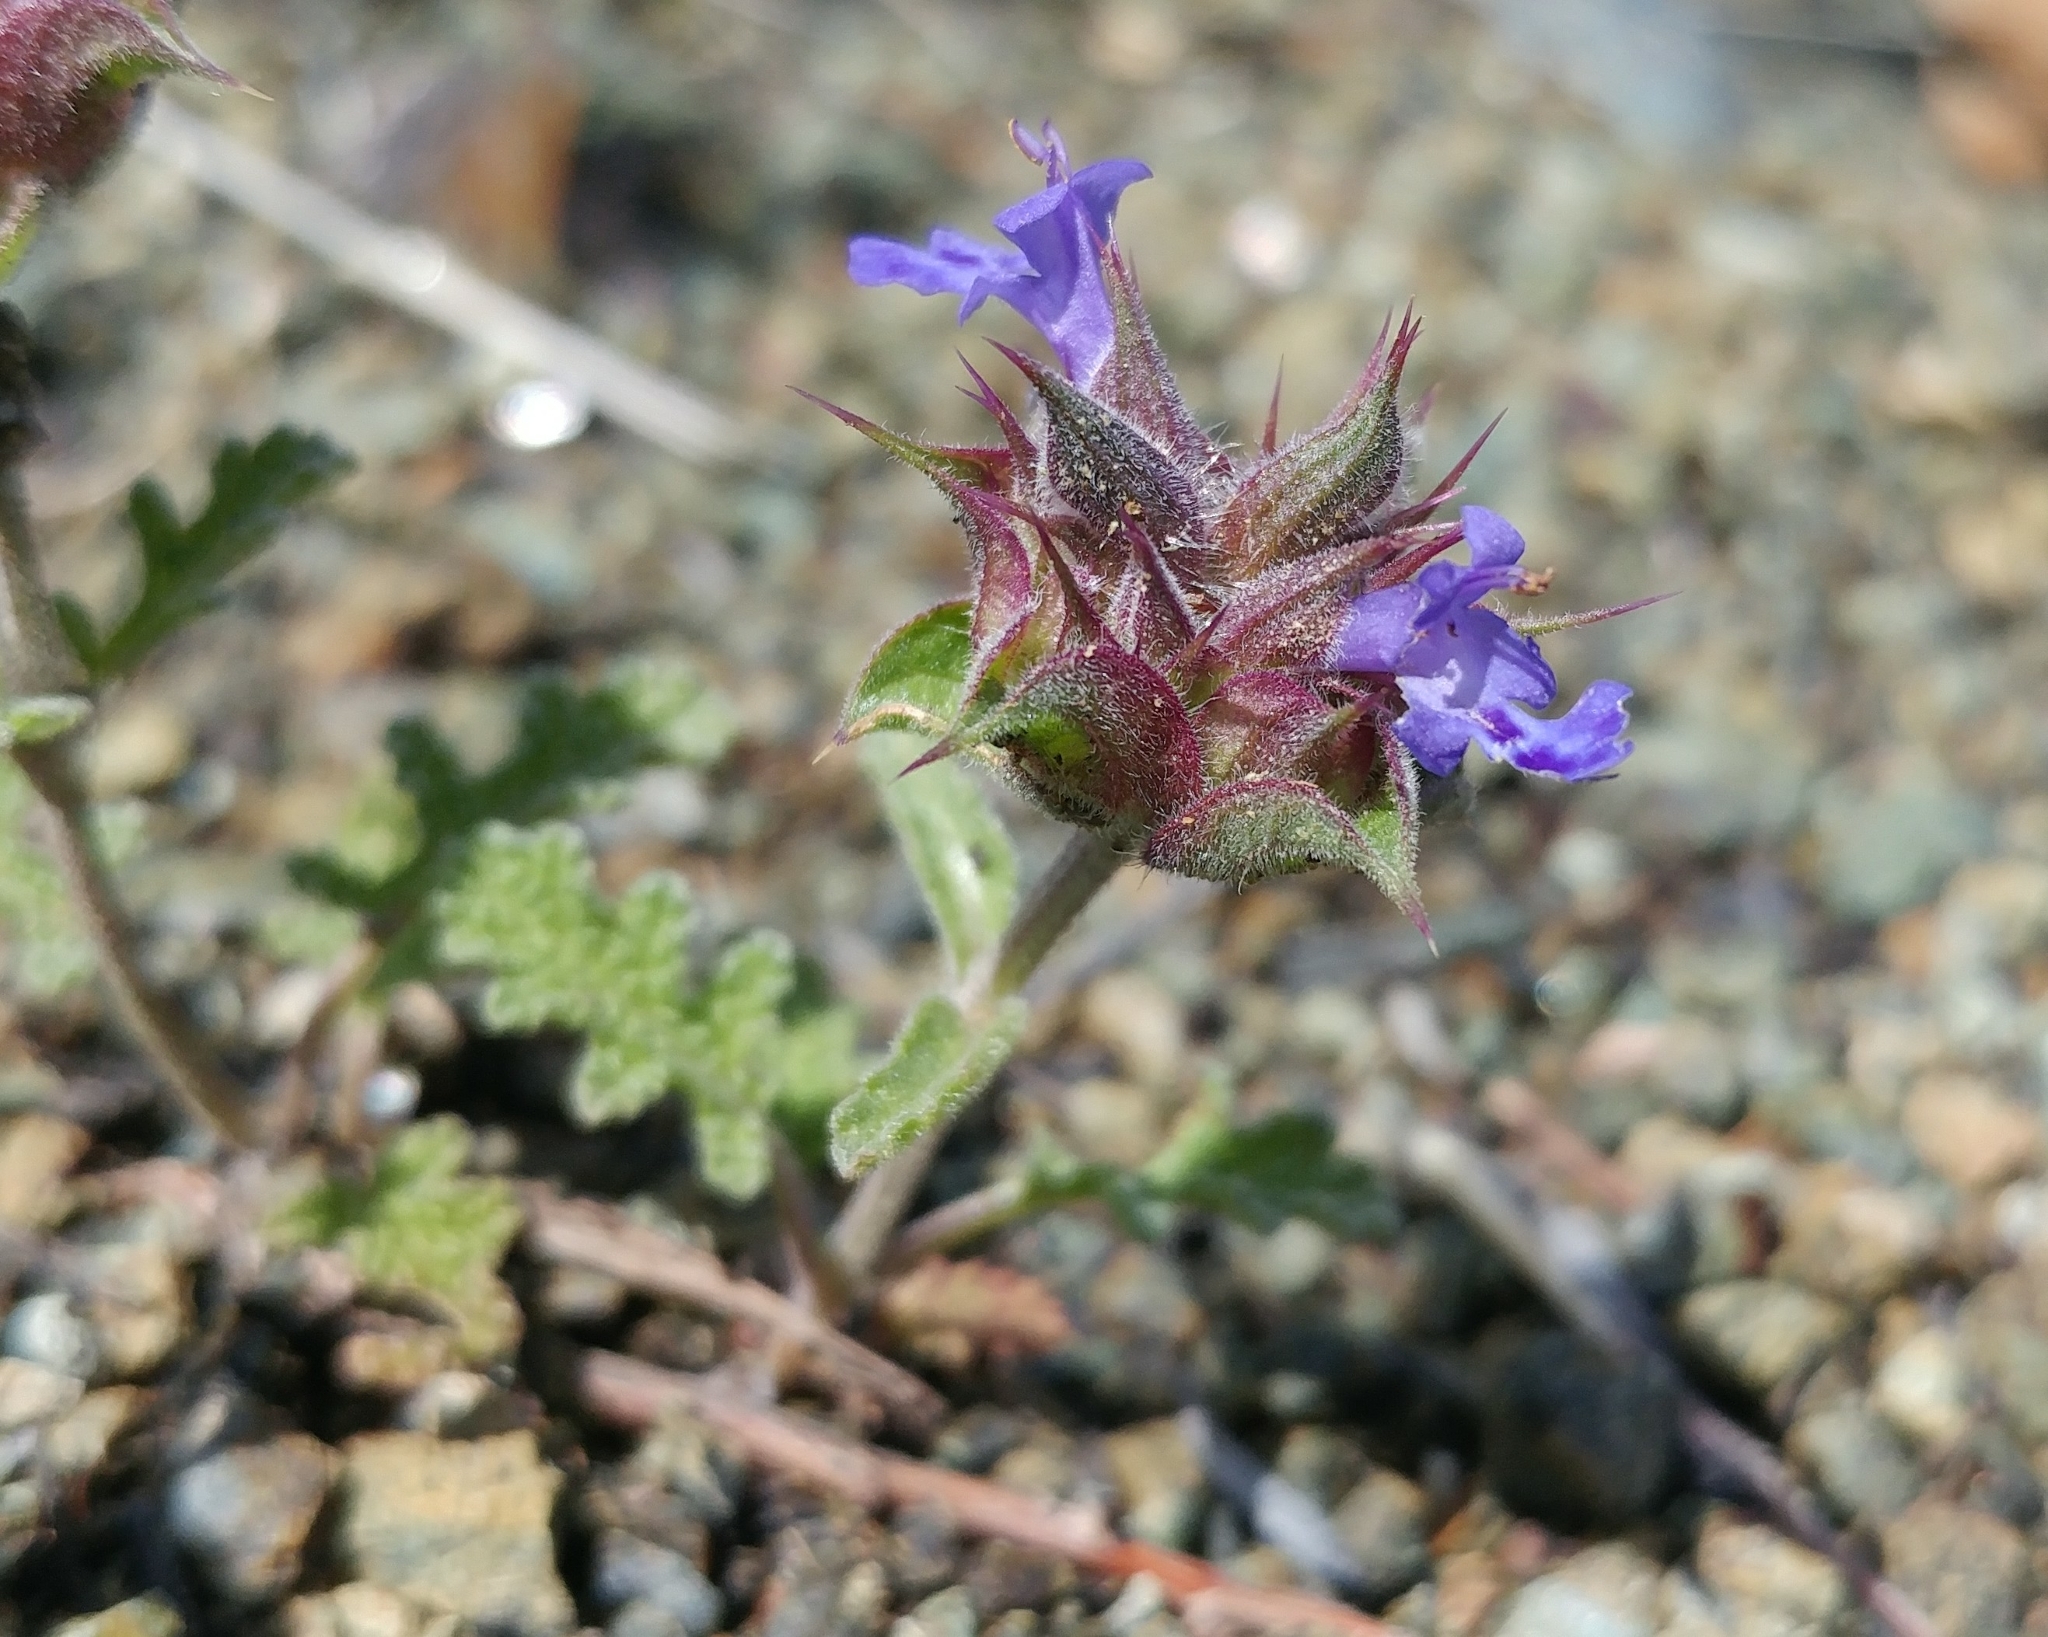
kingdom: Plantae
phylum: Tracheophyta
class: Magnoliopsida
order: Lamiales
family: Lamiaceae
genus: Salvia
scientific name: Salvia columbariae
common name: Chia
